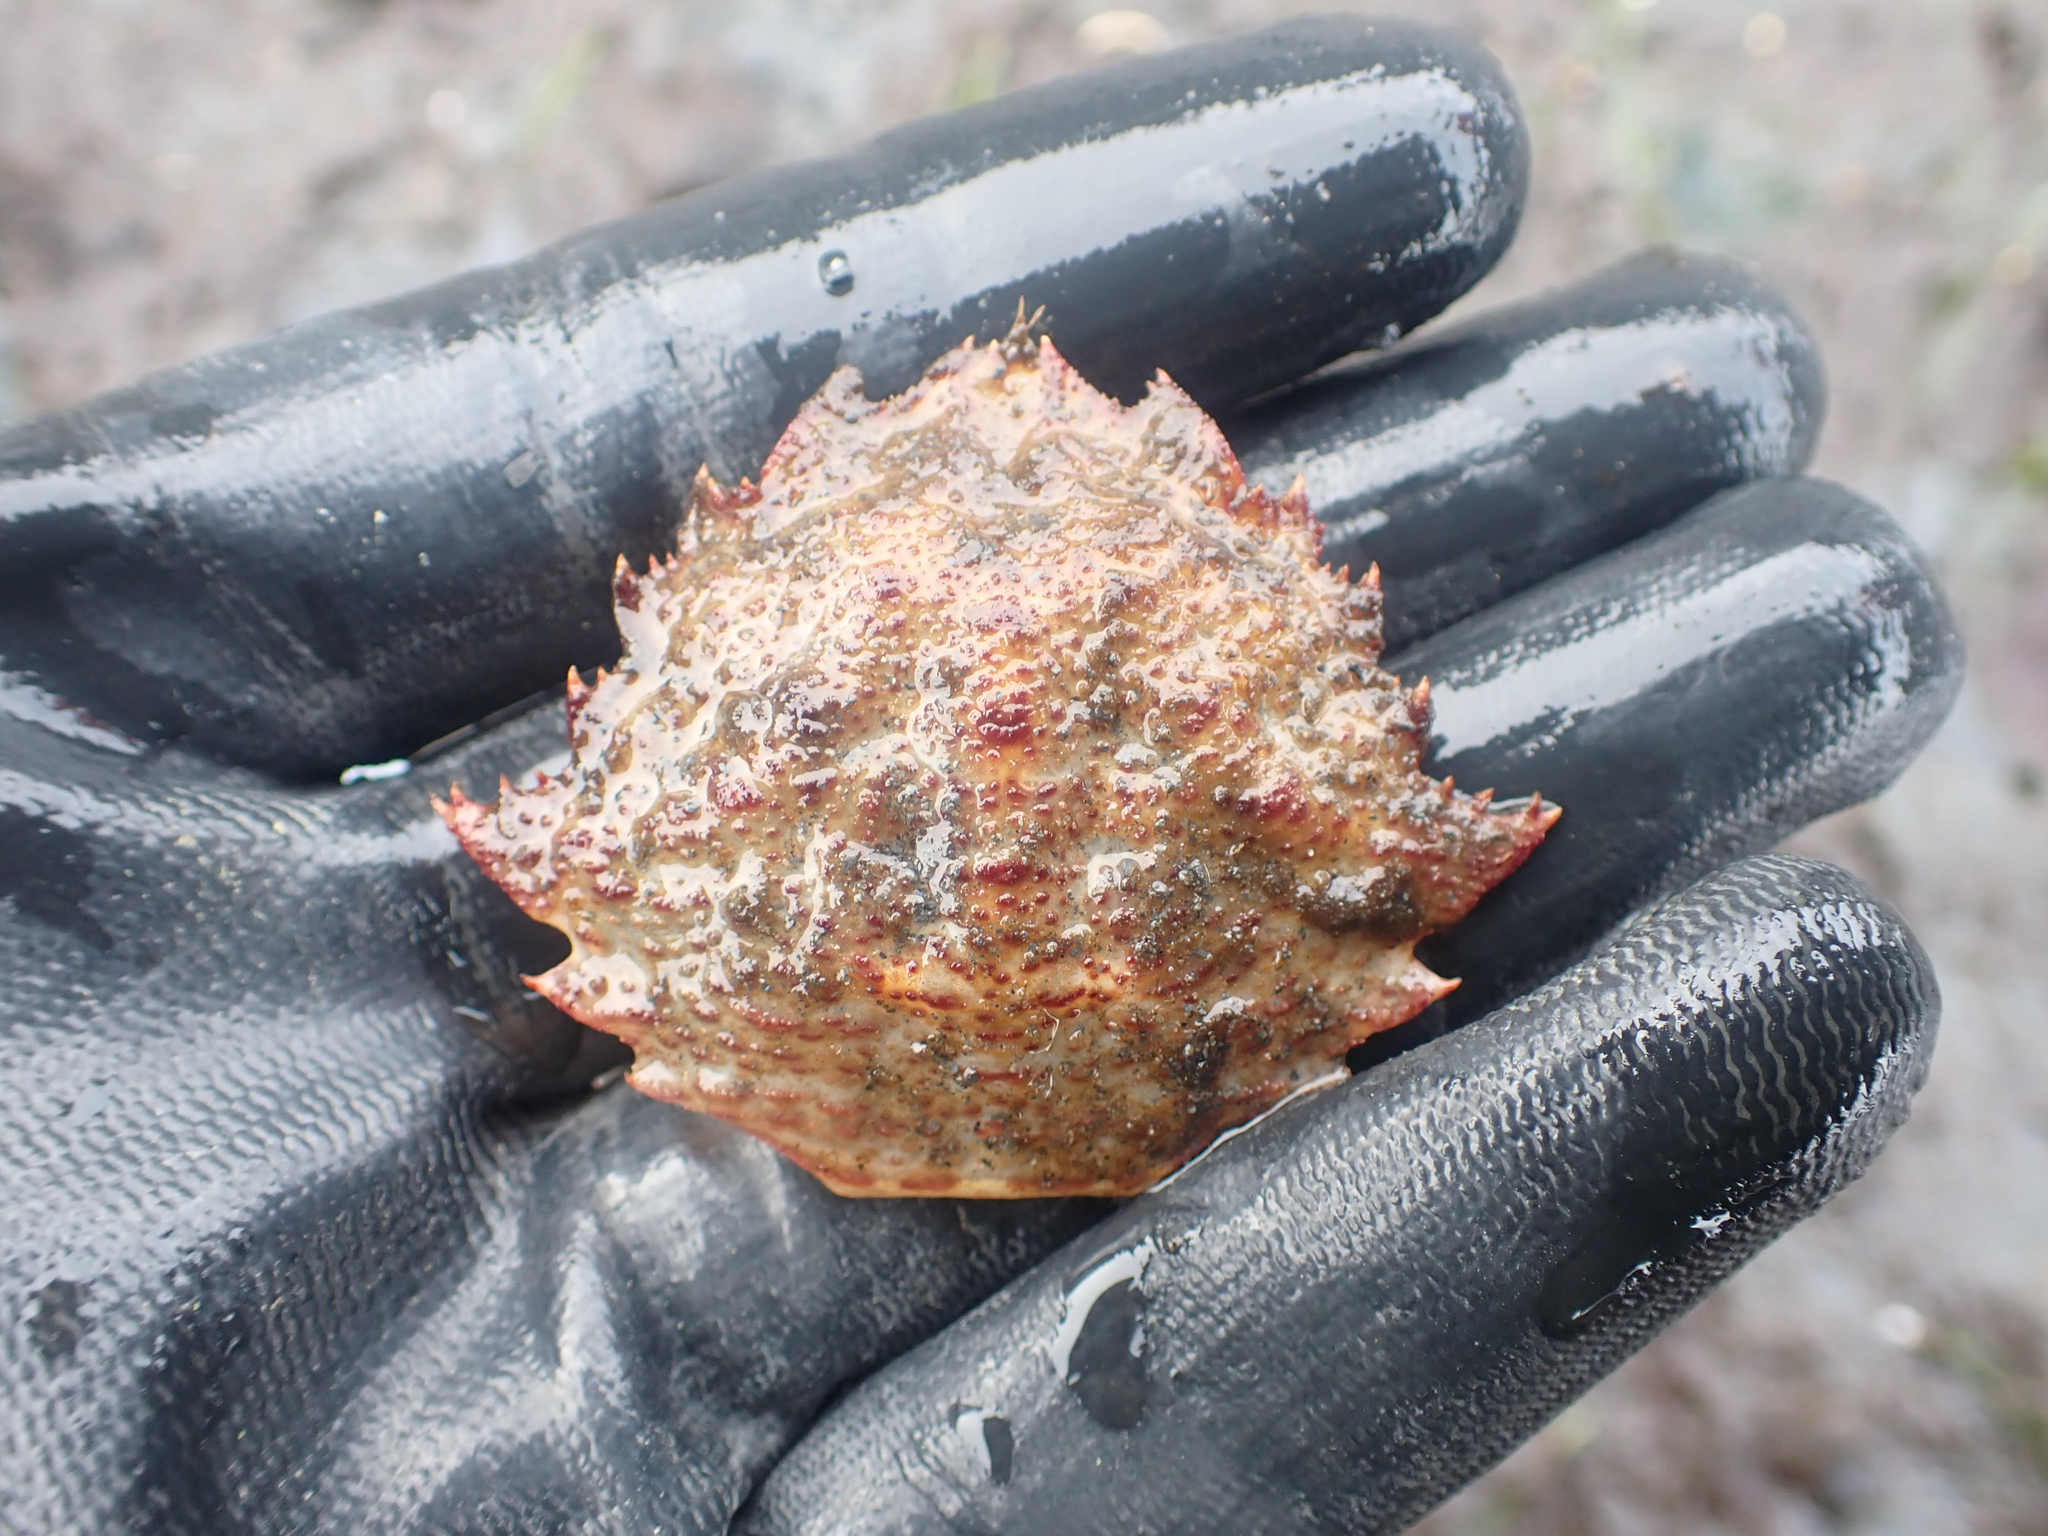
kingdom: Animalia
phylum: Arthropoda
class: Malacostraca
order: Decapoda
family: Cheiragonidae
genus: Telmessus
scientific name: Telmessus cheiragonus
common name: Helmet crab
